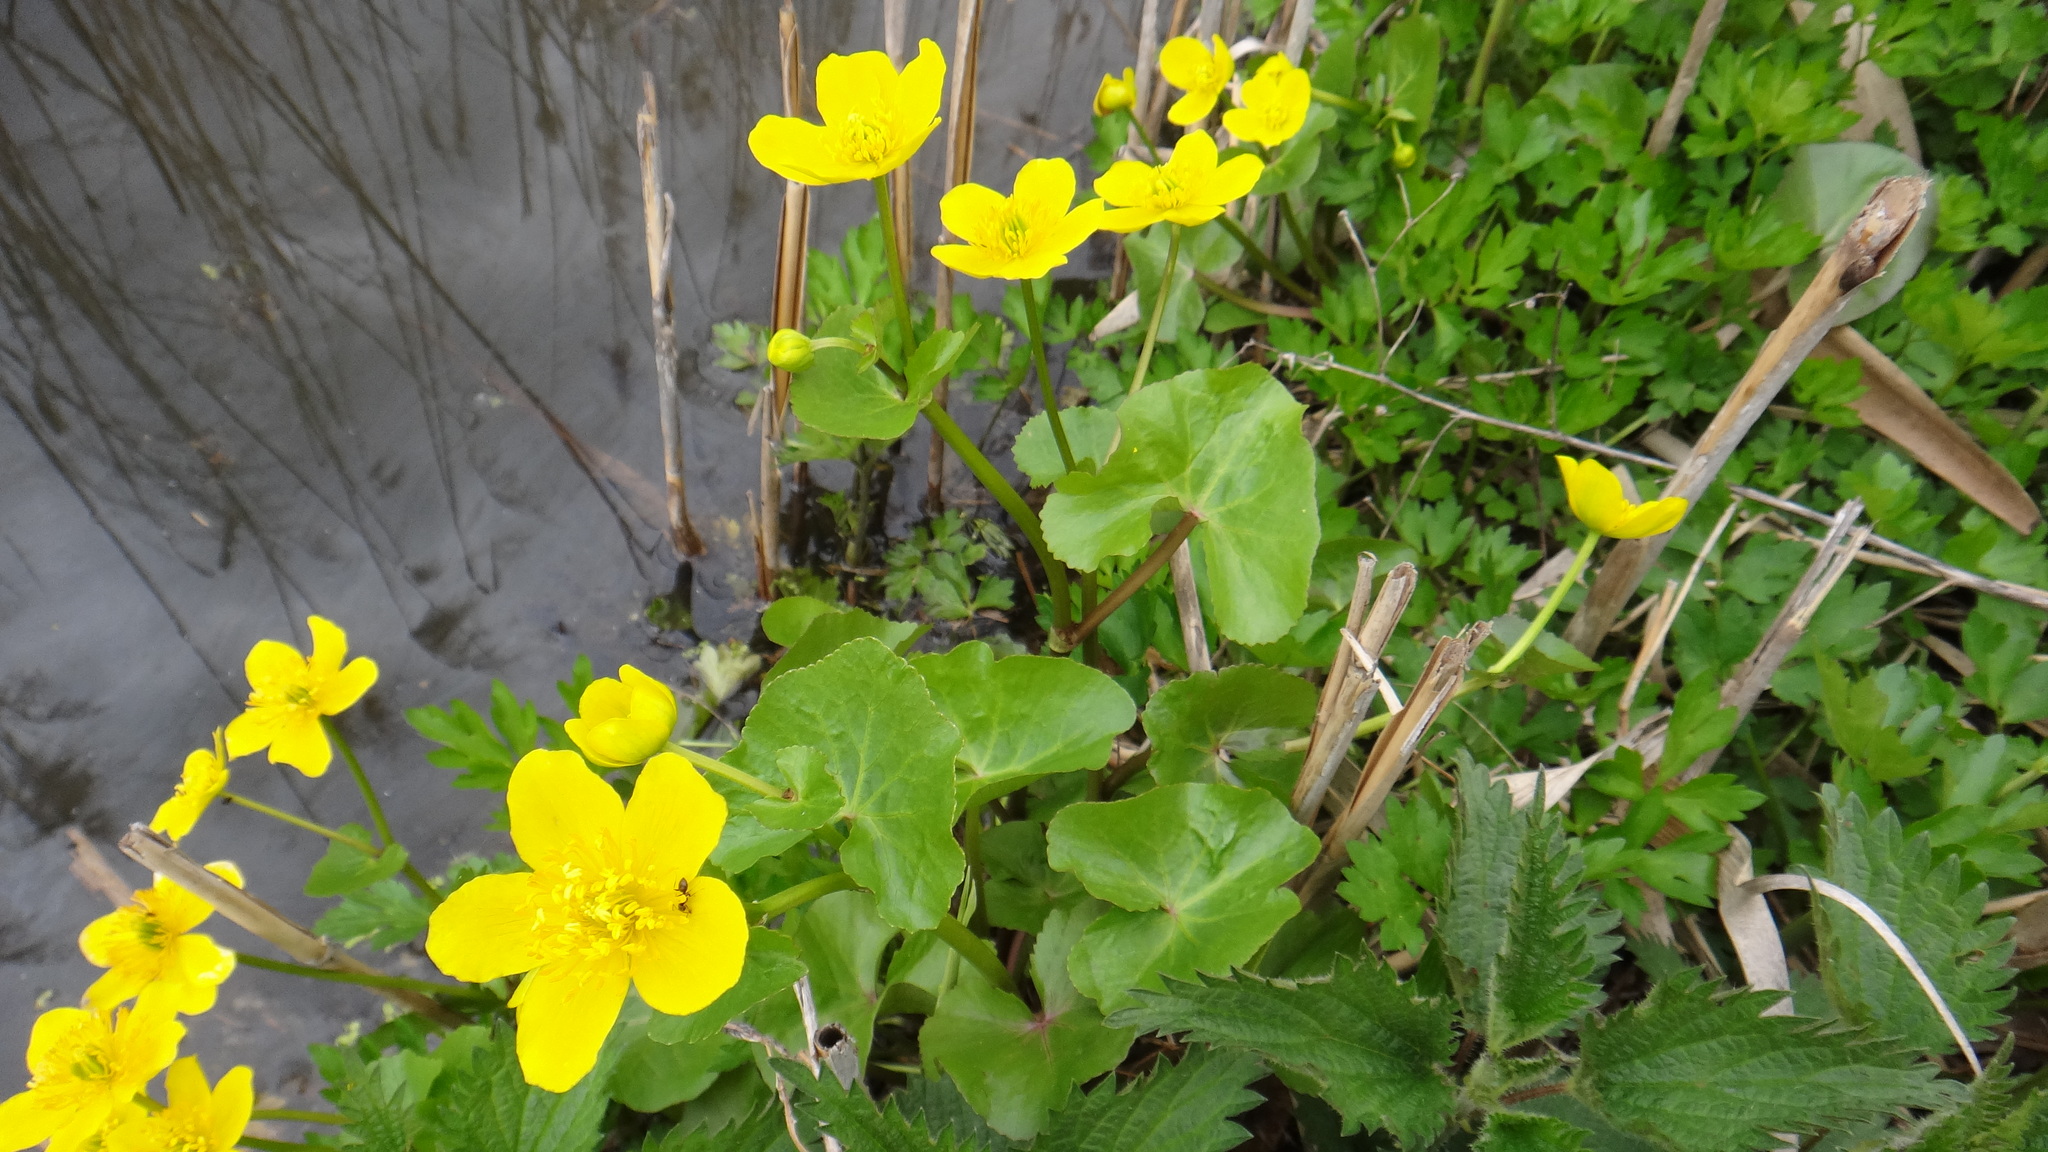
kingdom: Plantae
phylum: Tracheophyta
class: Magnoliopsida
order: Ranunculales
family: Ranunculaceae
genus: Caltha
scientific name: Caltha palustris
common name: Marsh marigold
